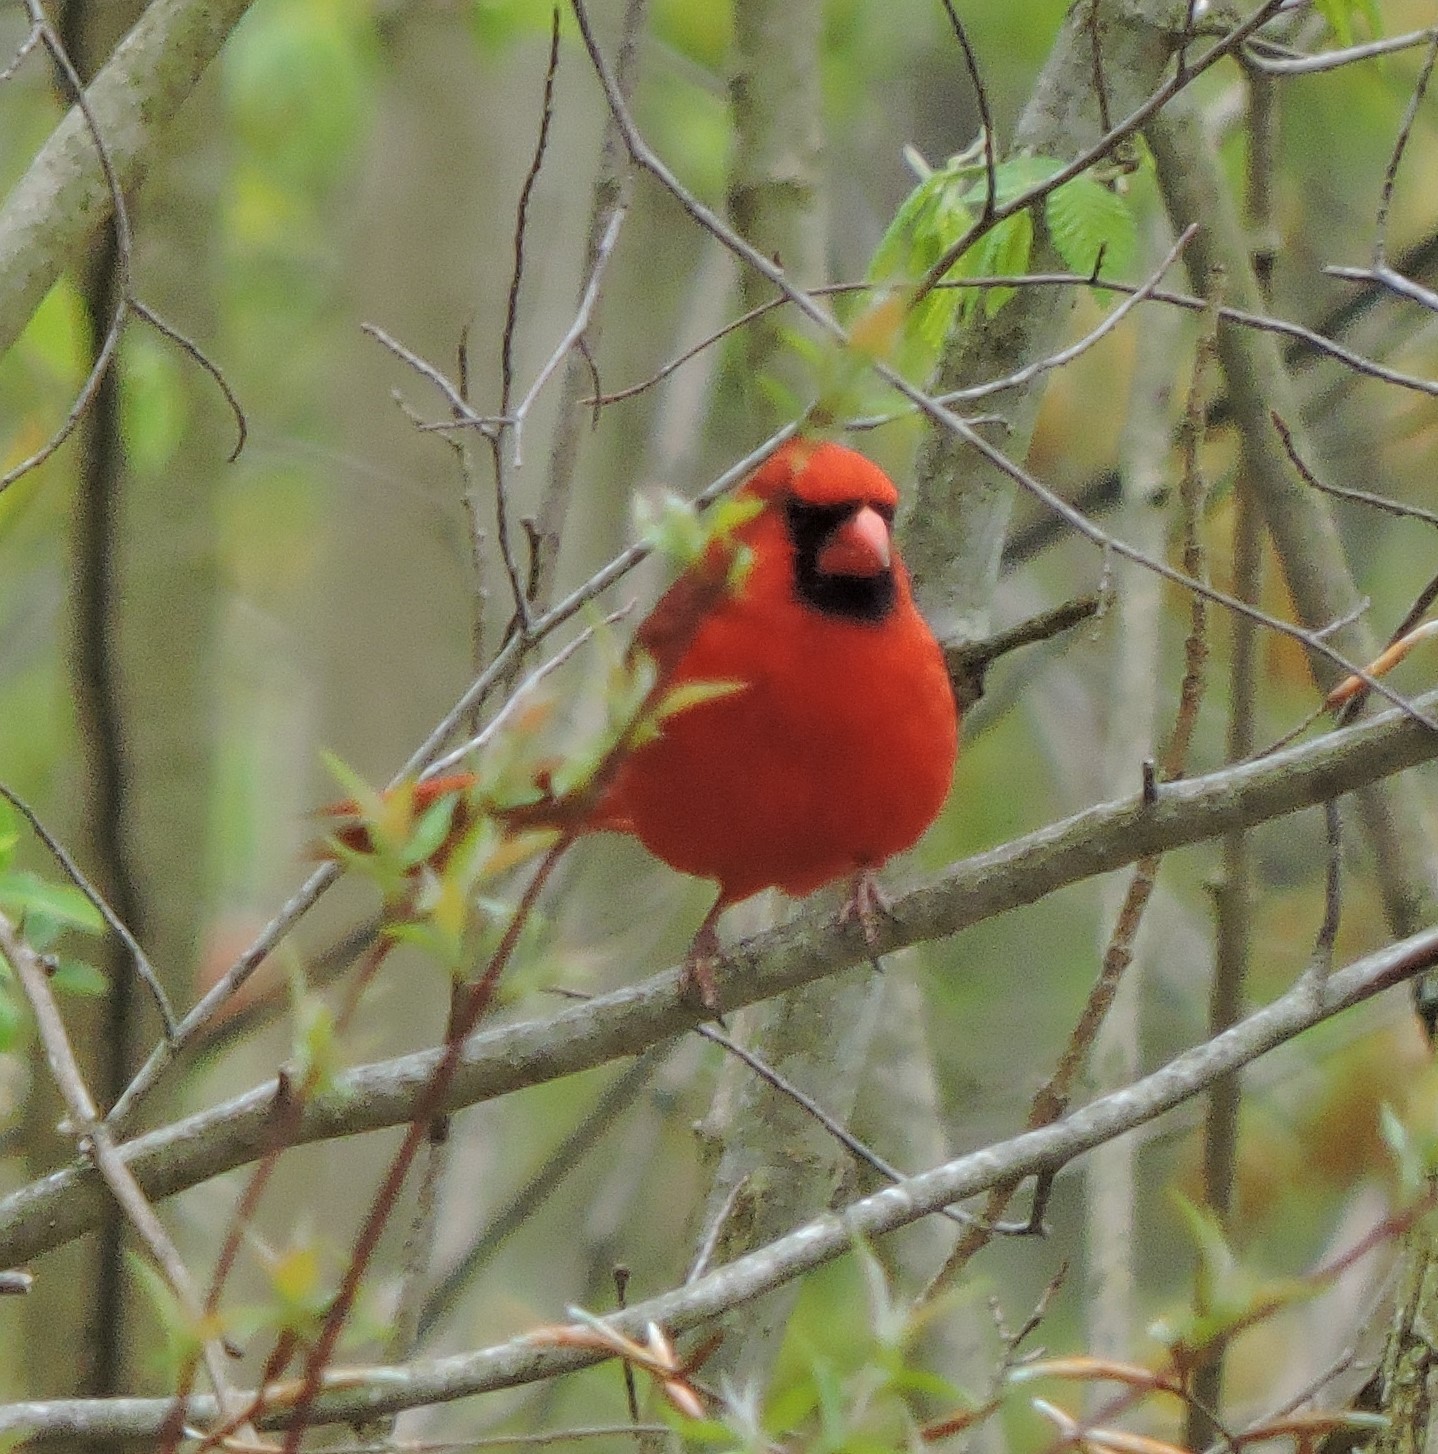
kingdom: Animalia
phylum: Chordata
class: Aves
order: Passeriformes
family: Cardinalidae
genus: Cardinalis
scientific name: Cardinalis cardinalis
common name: Northern cardinal
